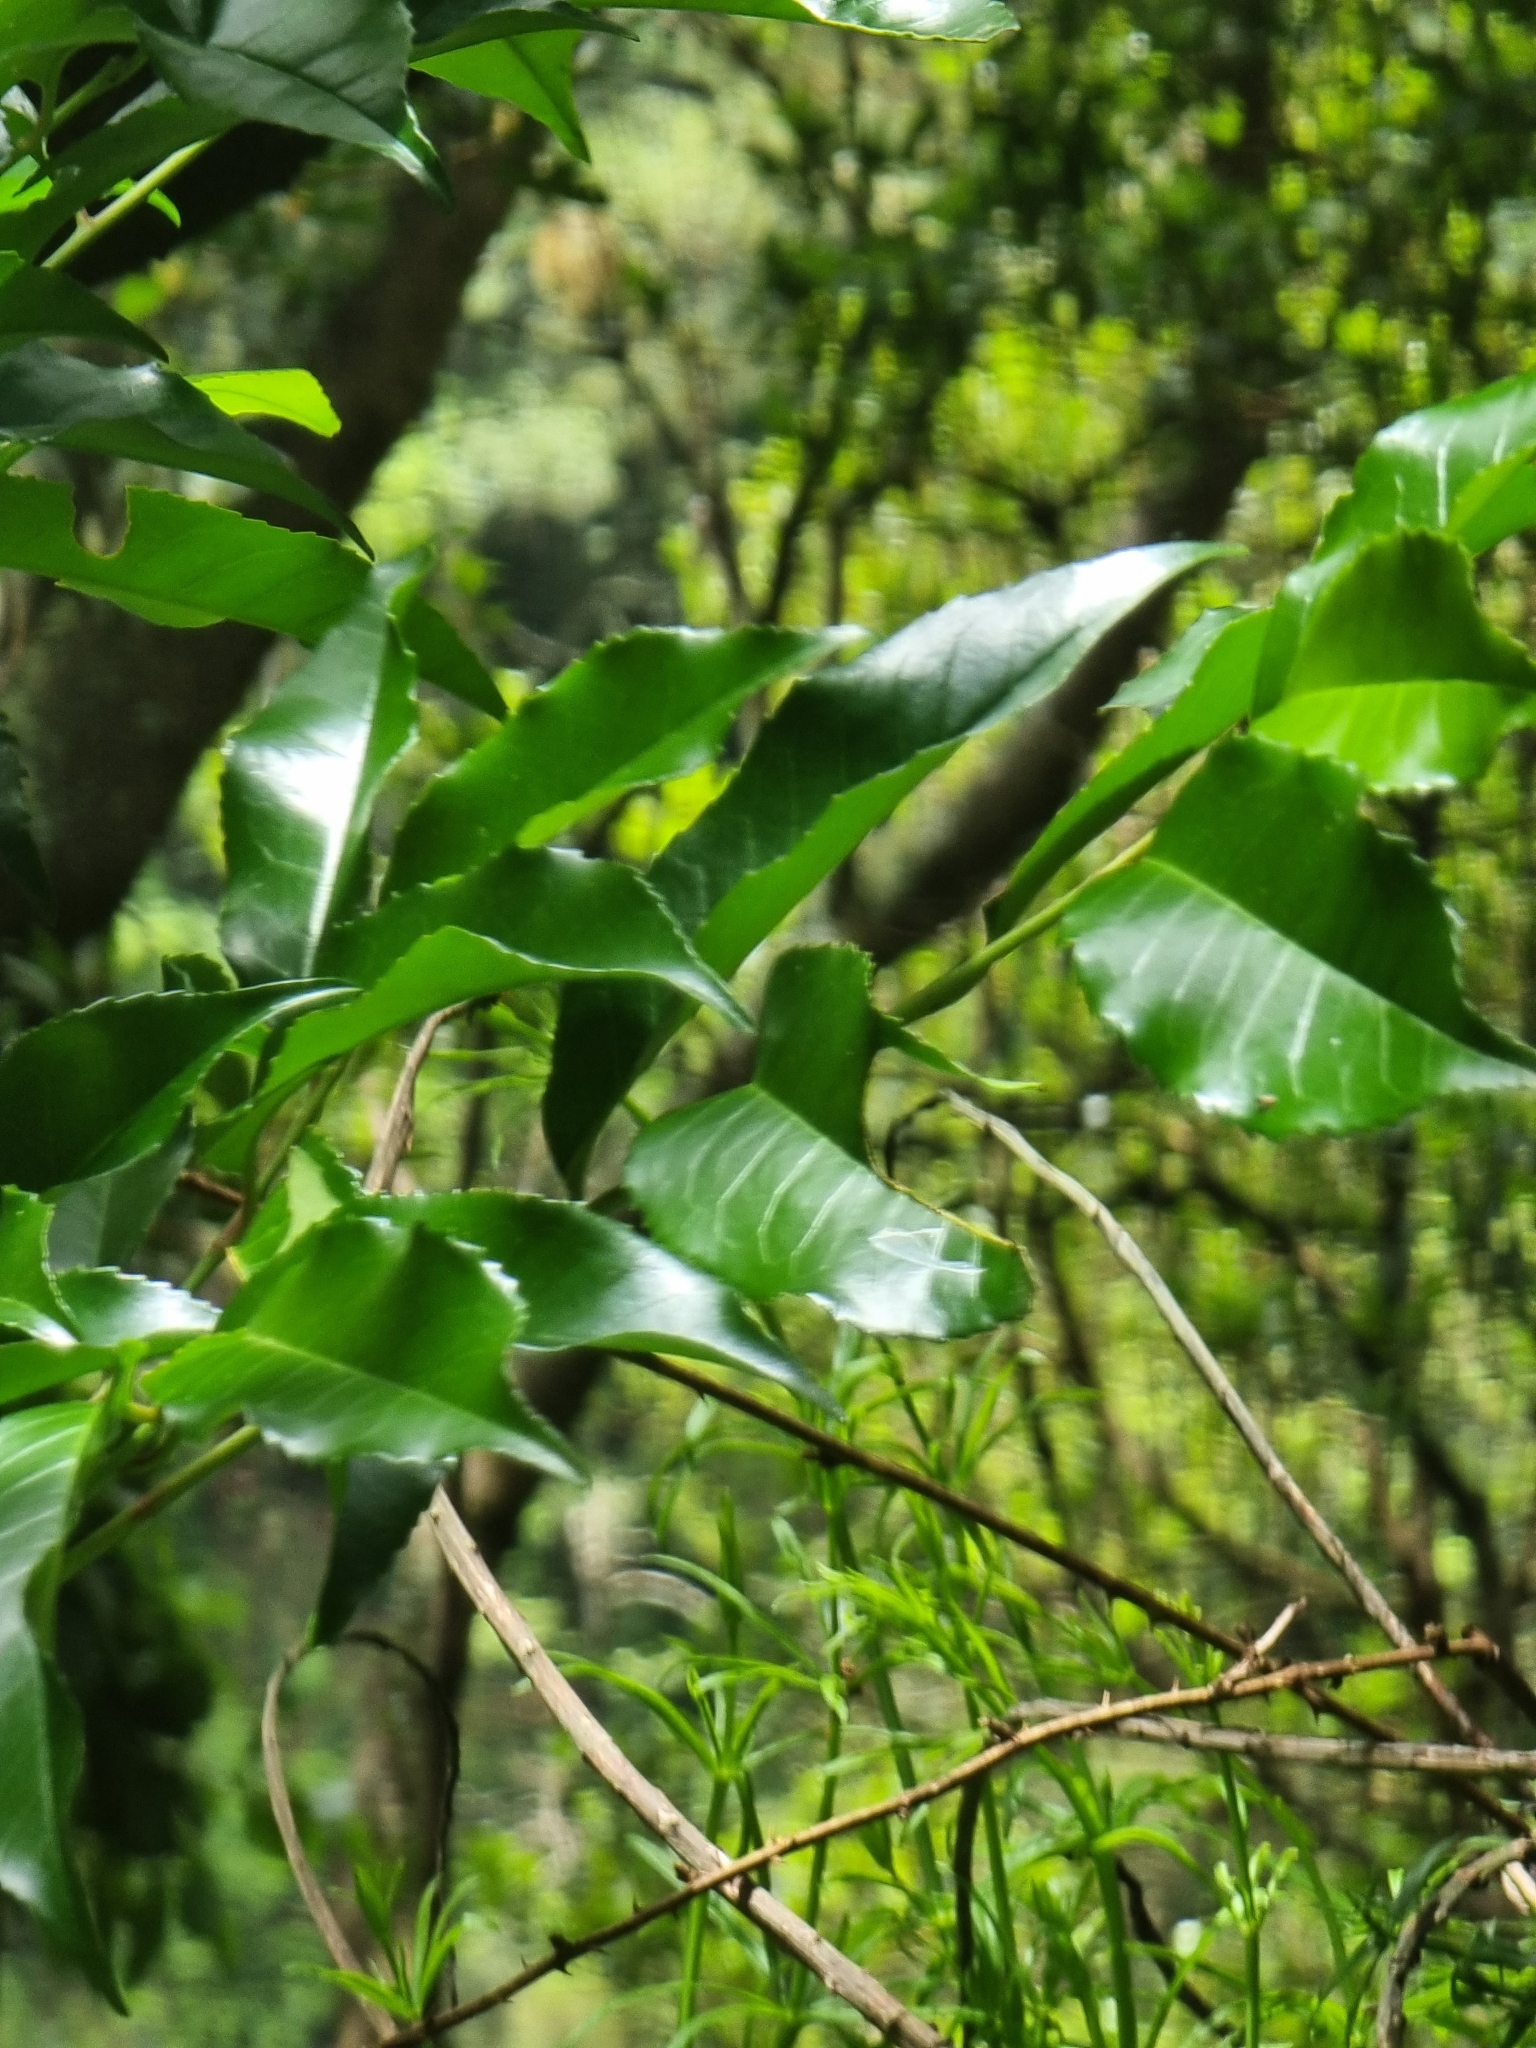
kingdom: Plantae
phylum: Tracheophyta
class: Magnoliopsida
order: Rosales
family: Rosaceae
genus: Prunus
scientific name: Prunus hixa
